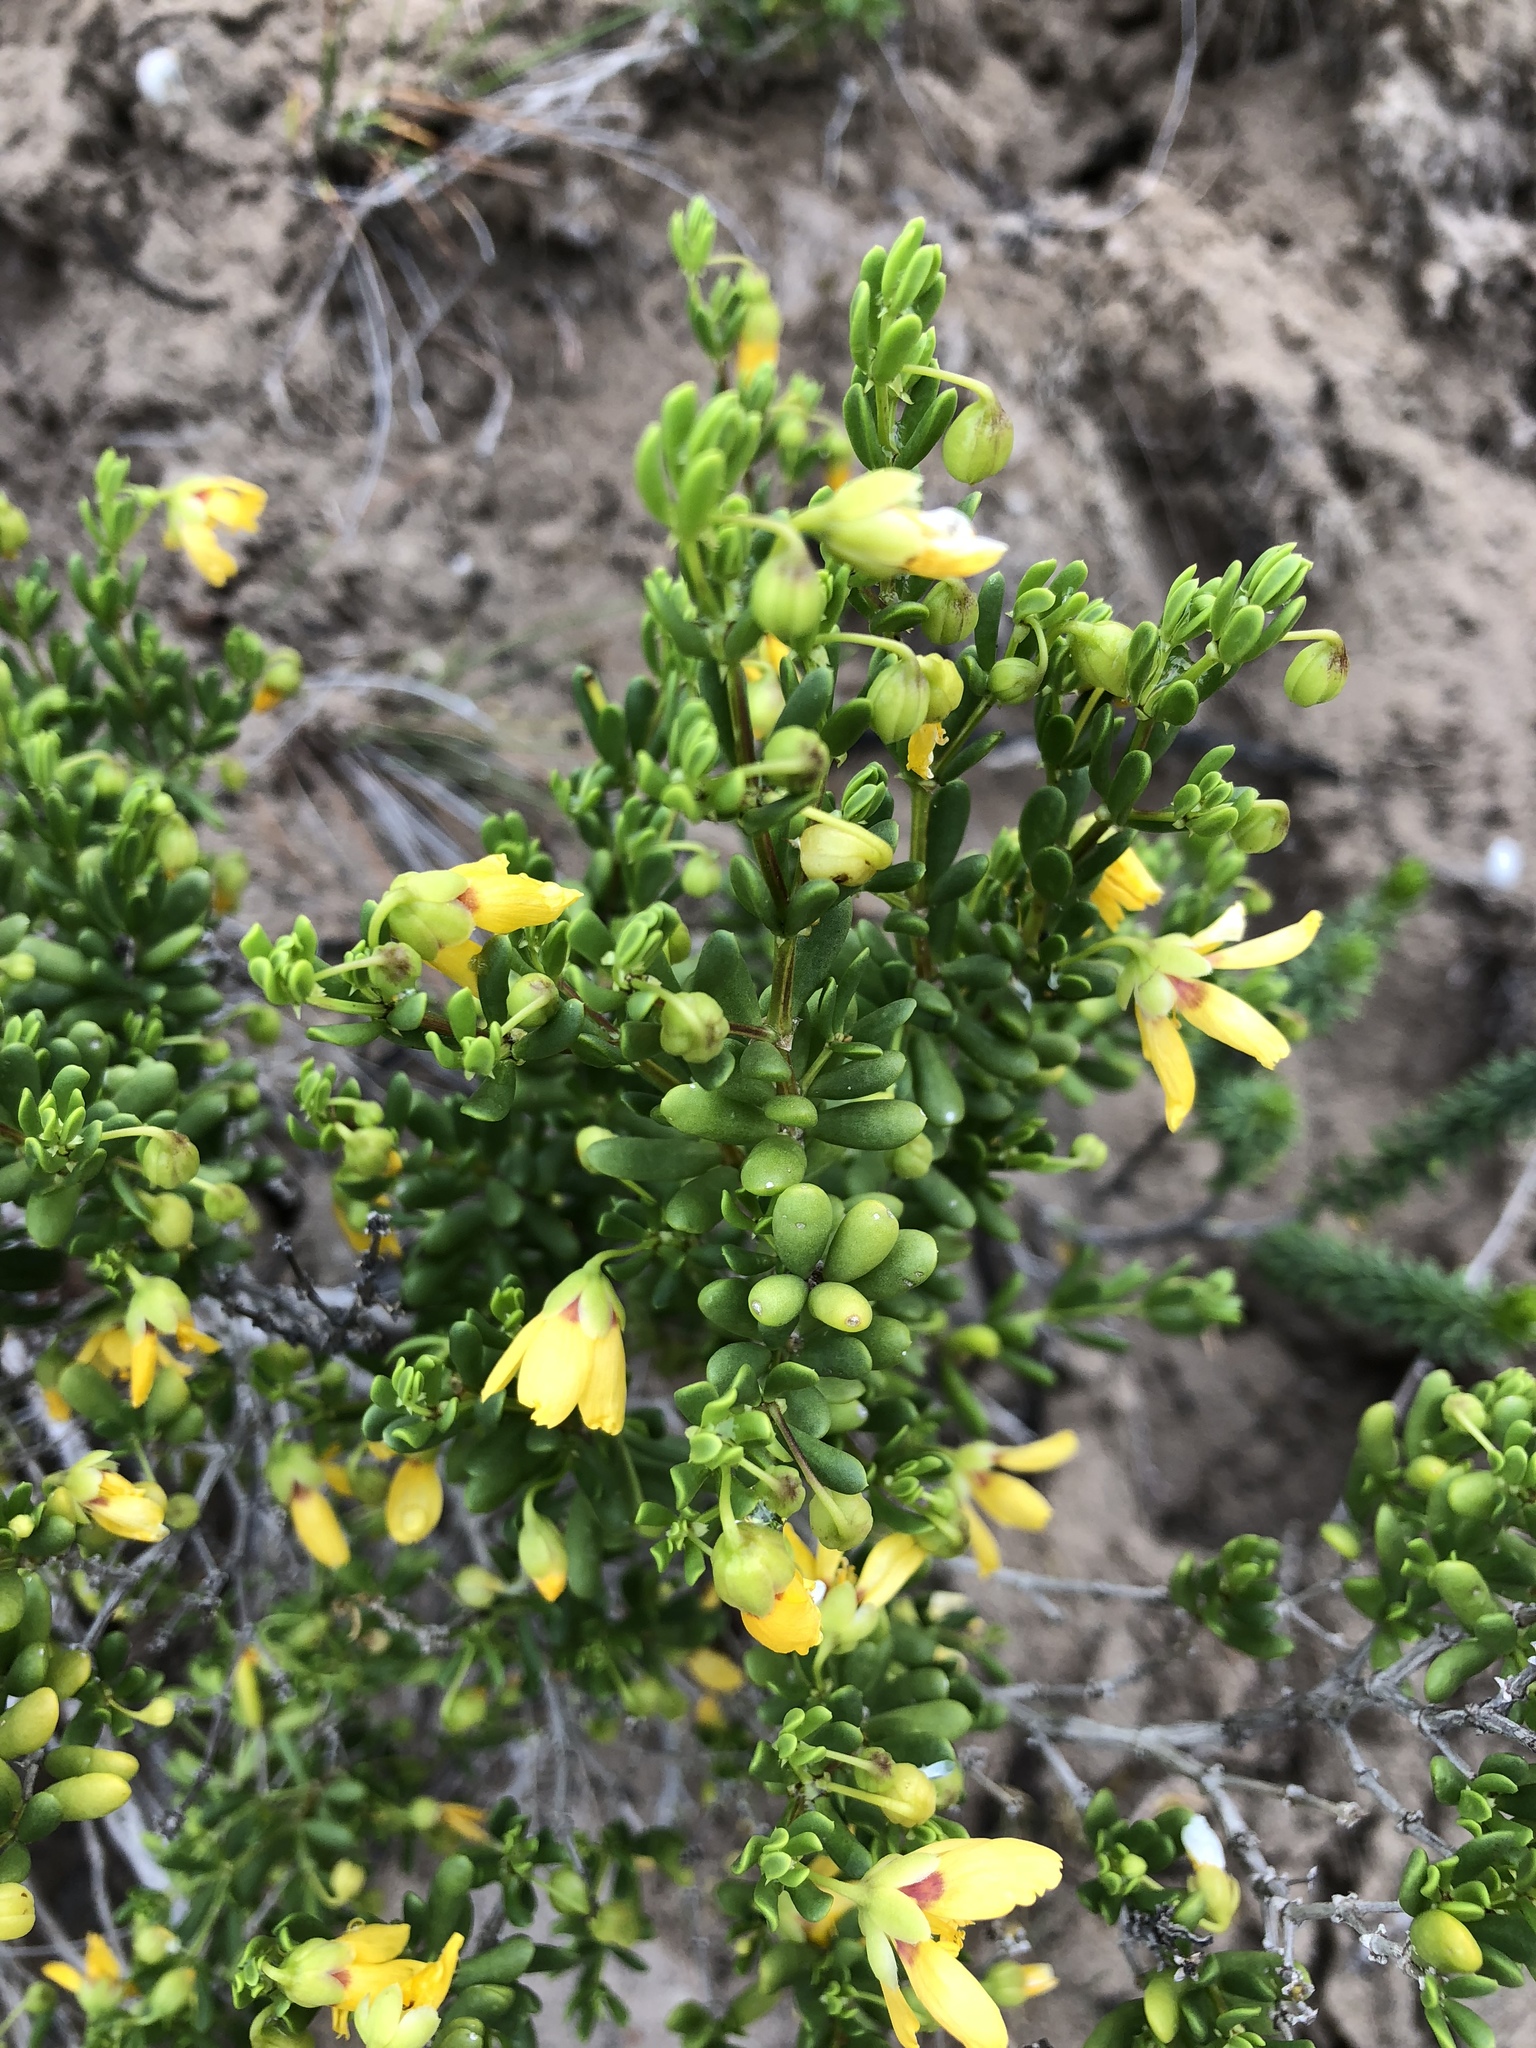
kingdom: Plantae
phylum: Tracheophyta
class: Magnoliopsida
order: Zygophyllales
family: Zygophyllaceae
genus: Roepera
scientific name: Roepera flexuosa
